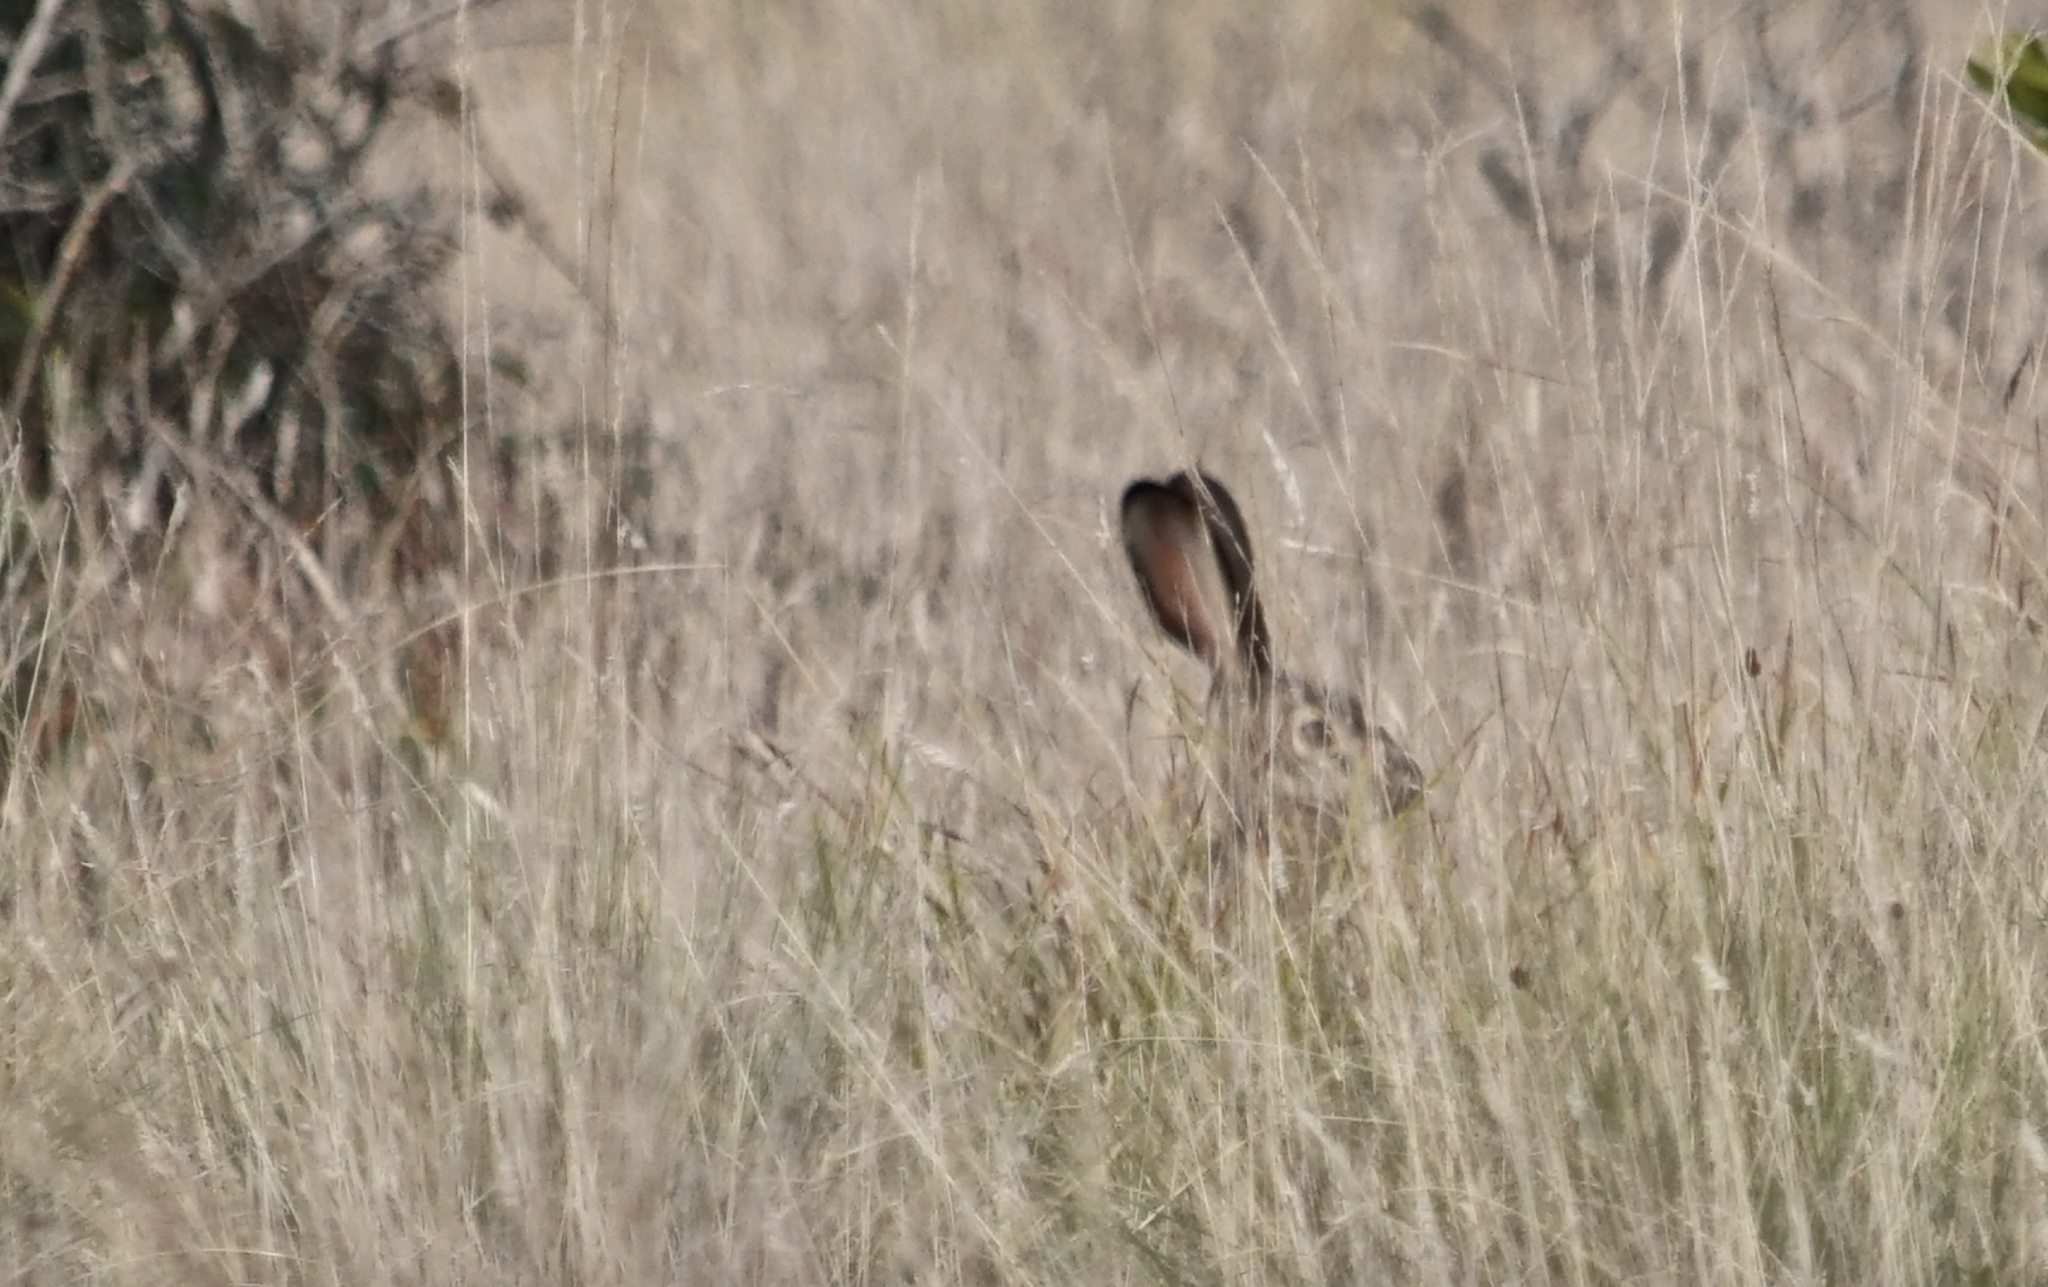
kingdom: Animalia
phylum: Chordata
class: Mammalia
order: Lagomorpha
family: Leporidae
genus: Lepus
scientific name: Lepus californicus
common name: Black-tailed jackrabbit
